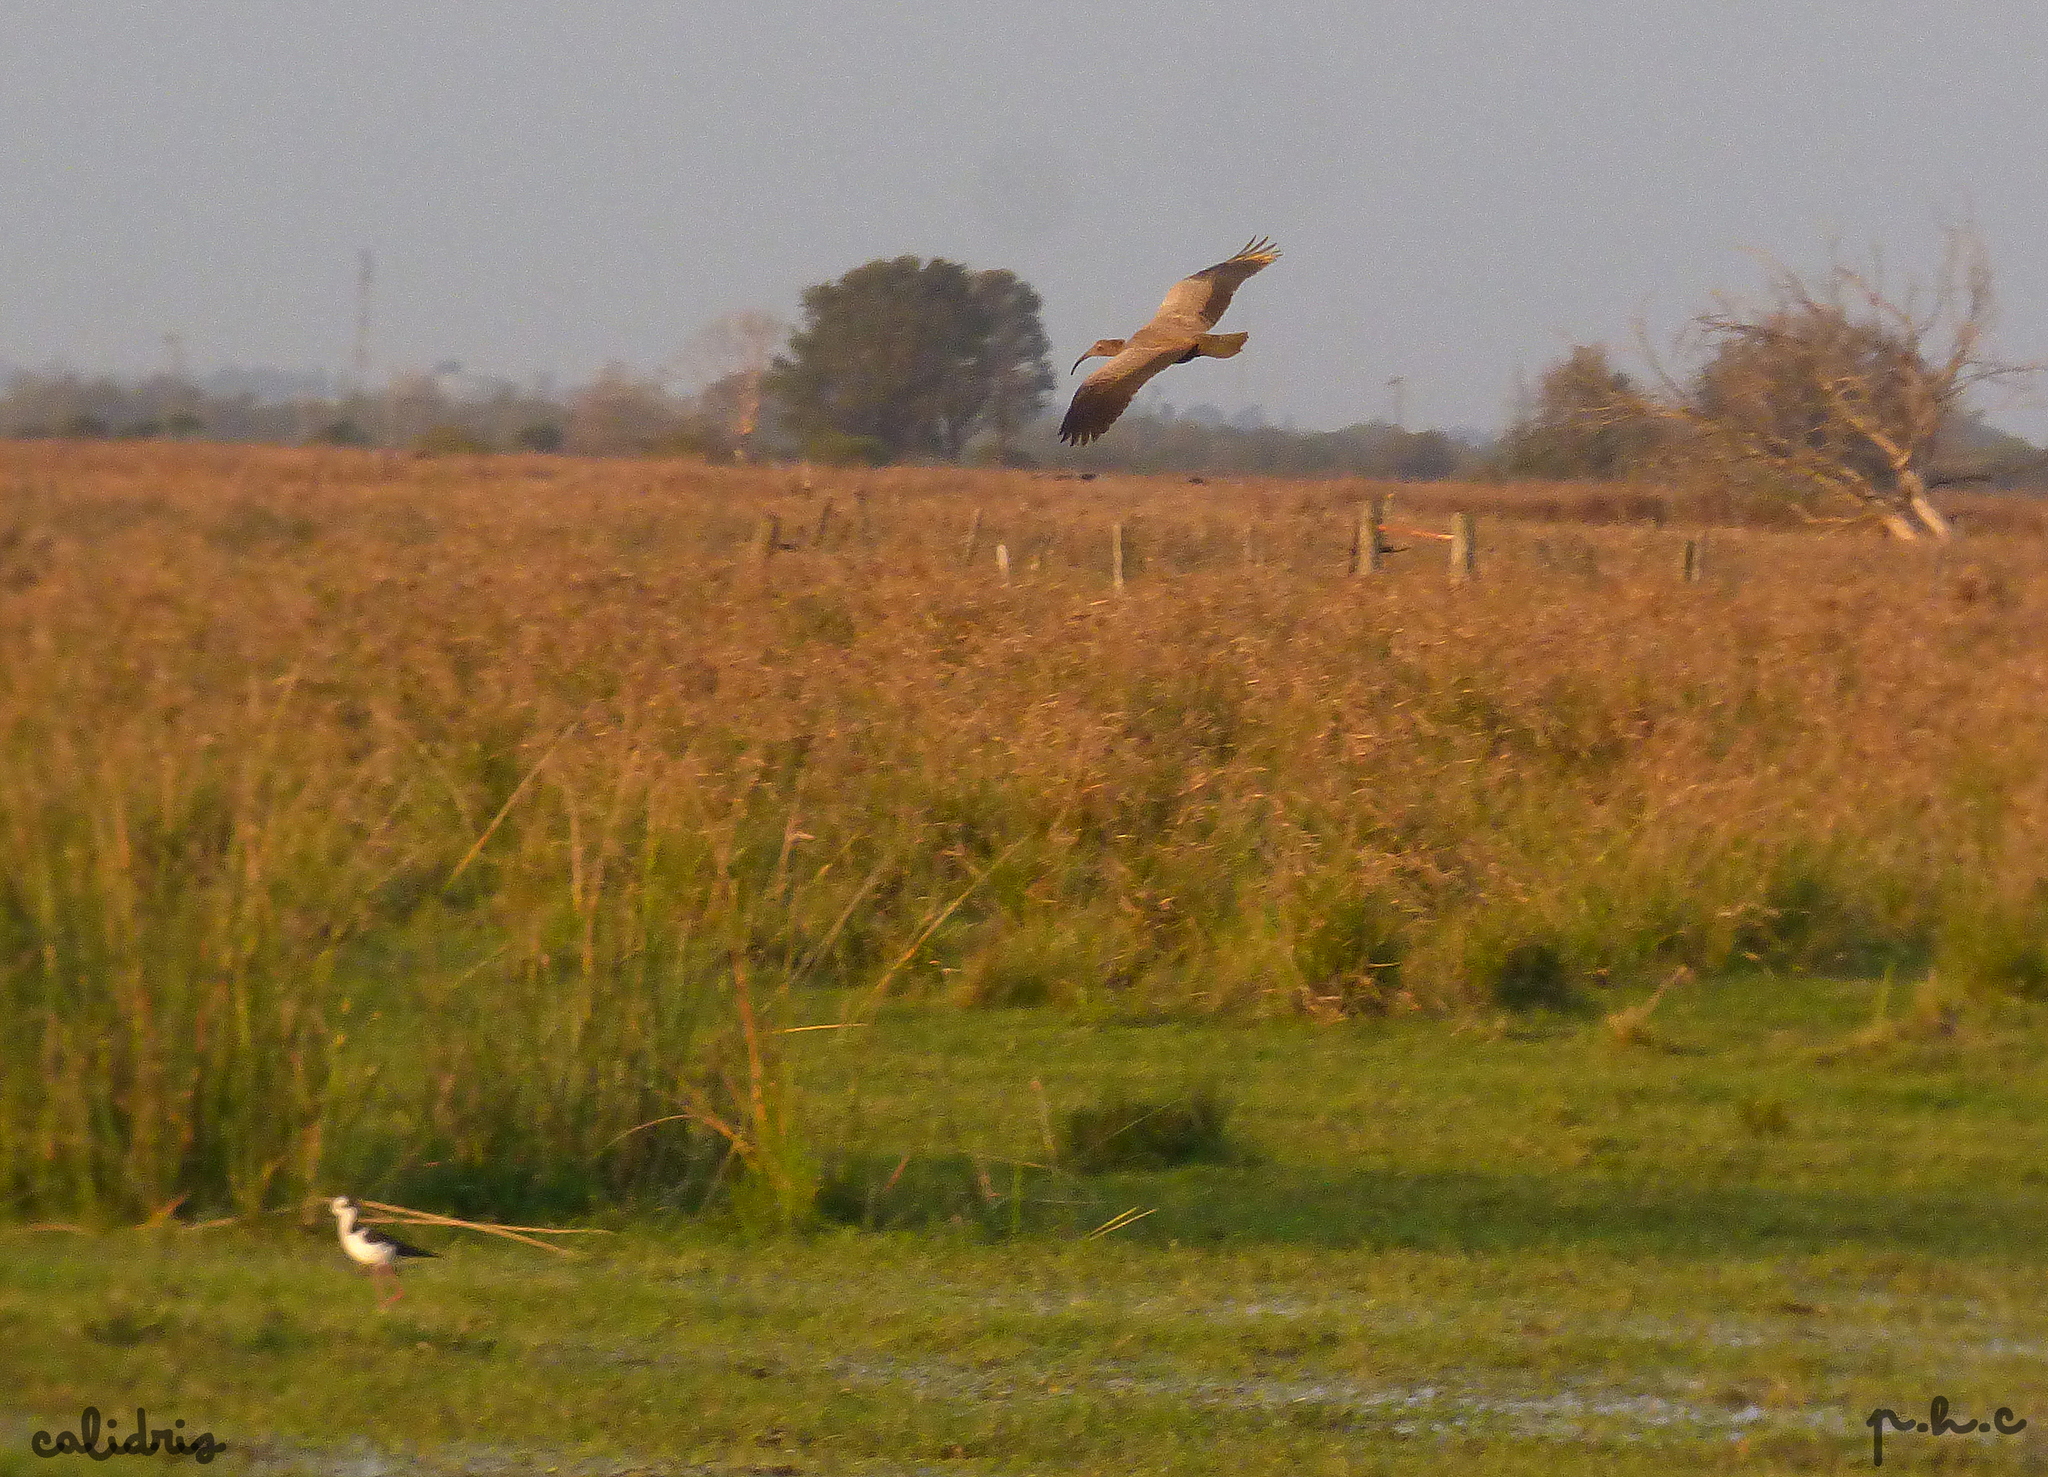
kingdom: Animalia
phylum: Chordata
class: Aves
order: Pelecaniformes
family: Threskiornithidae
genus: Theristicus
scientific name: Theristicus caerulescens
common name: Plumbeous ibis
